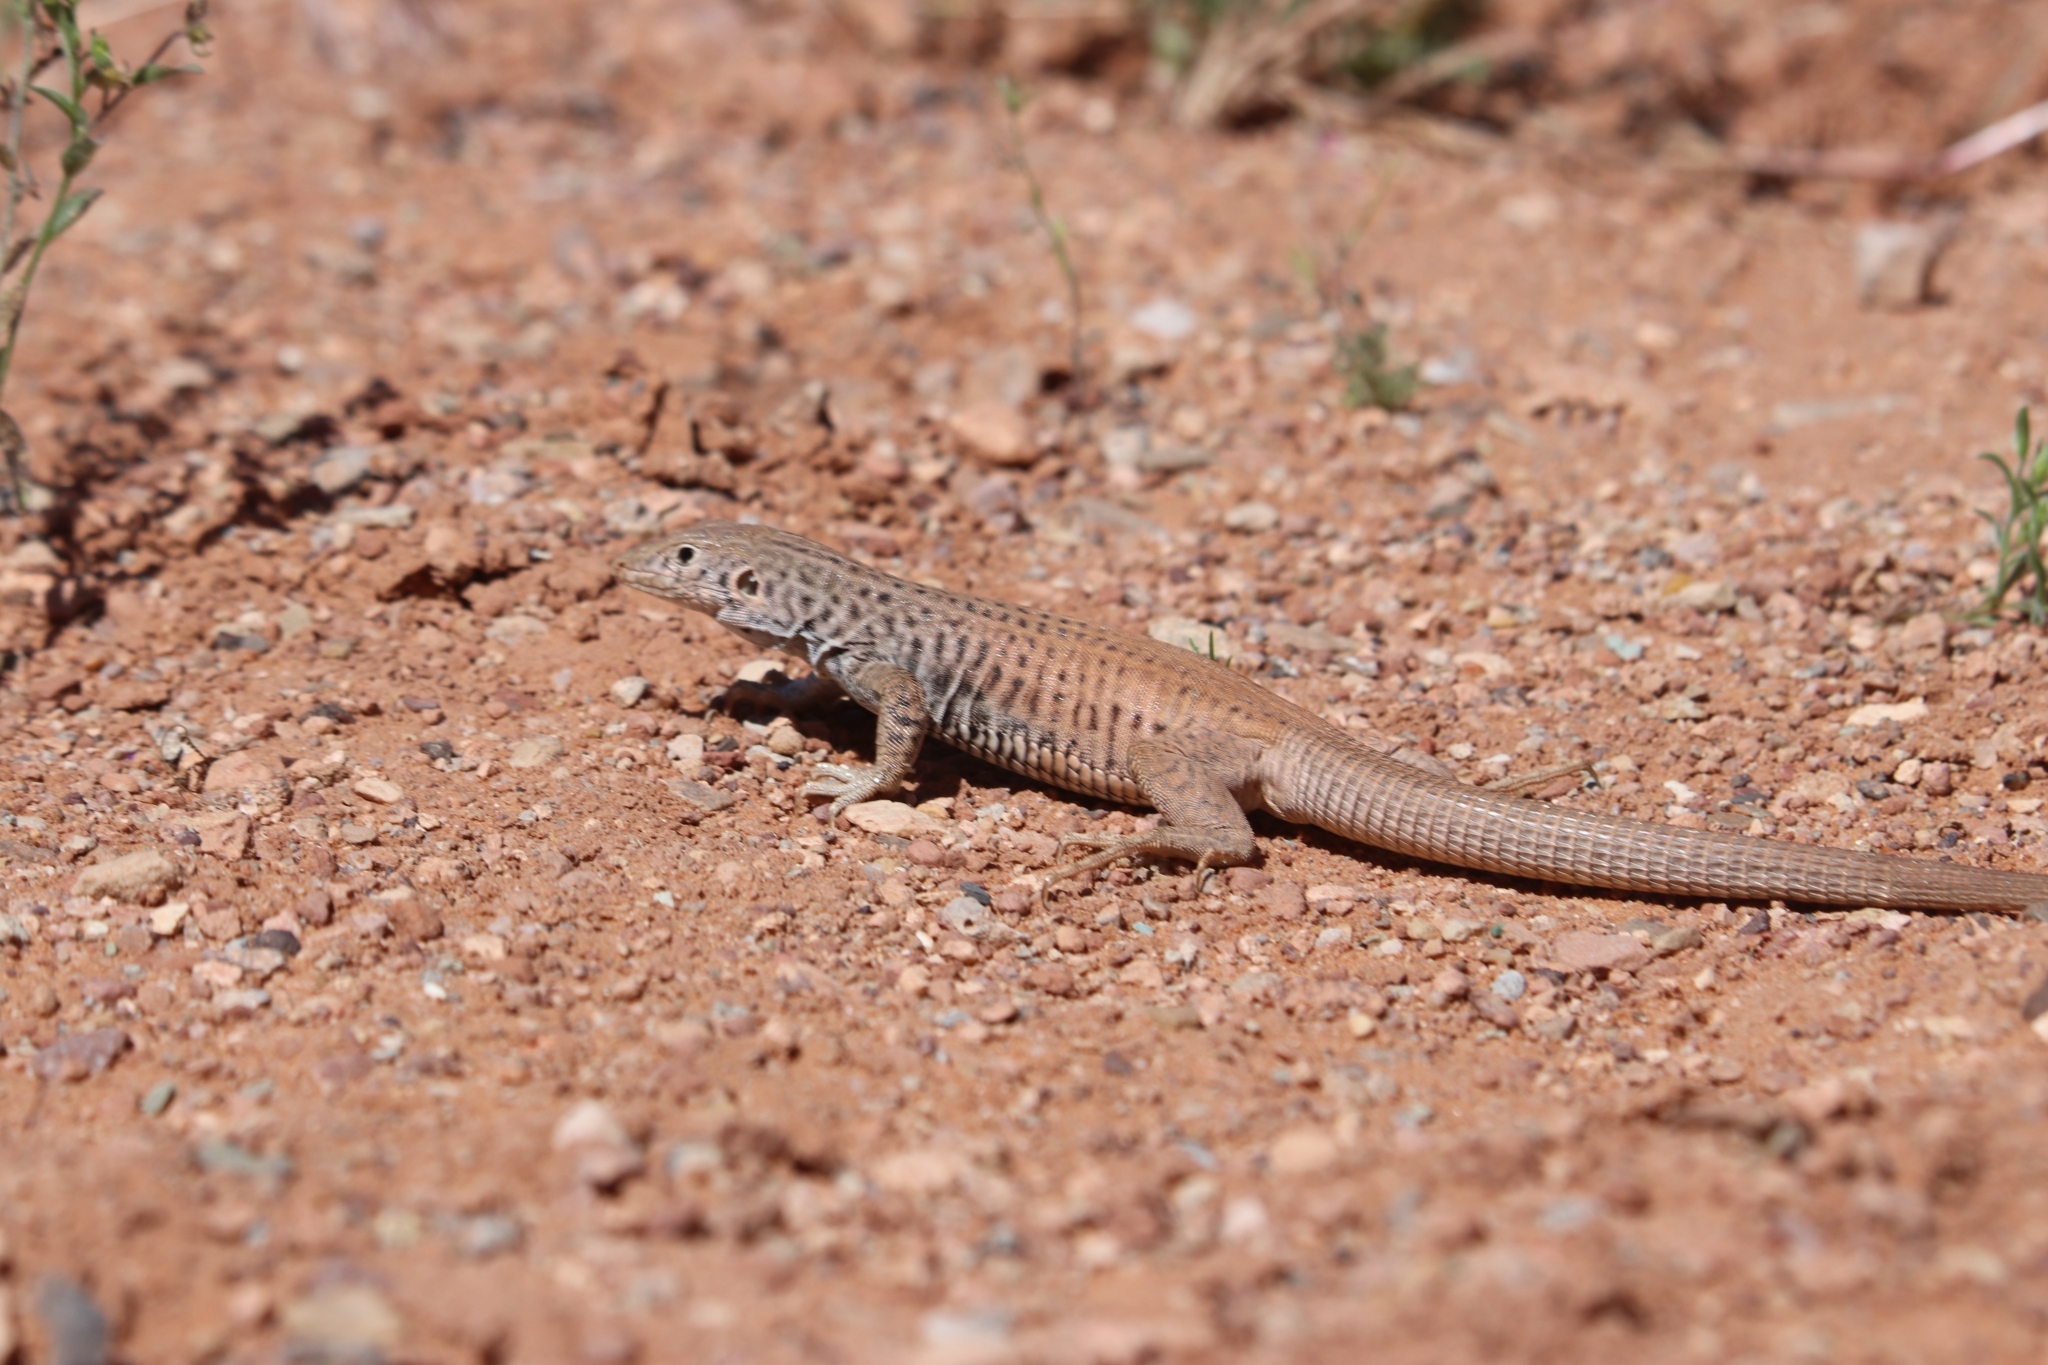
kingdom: Animalia
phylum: Chordata
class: Squamata
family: Teiidae
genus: Aspidoscelis
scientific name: Aspidoscelis tigris
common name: Tiger whiptail
